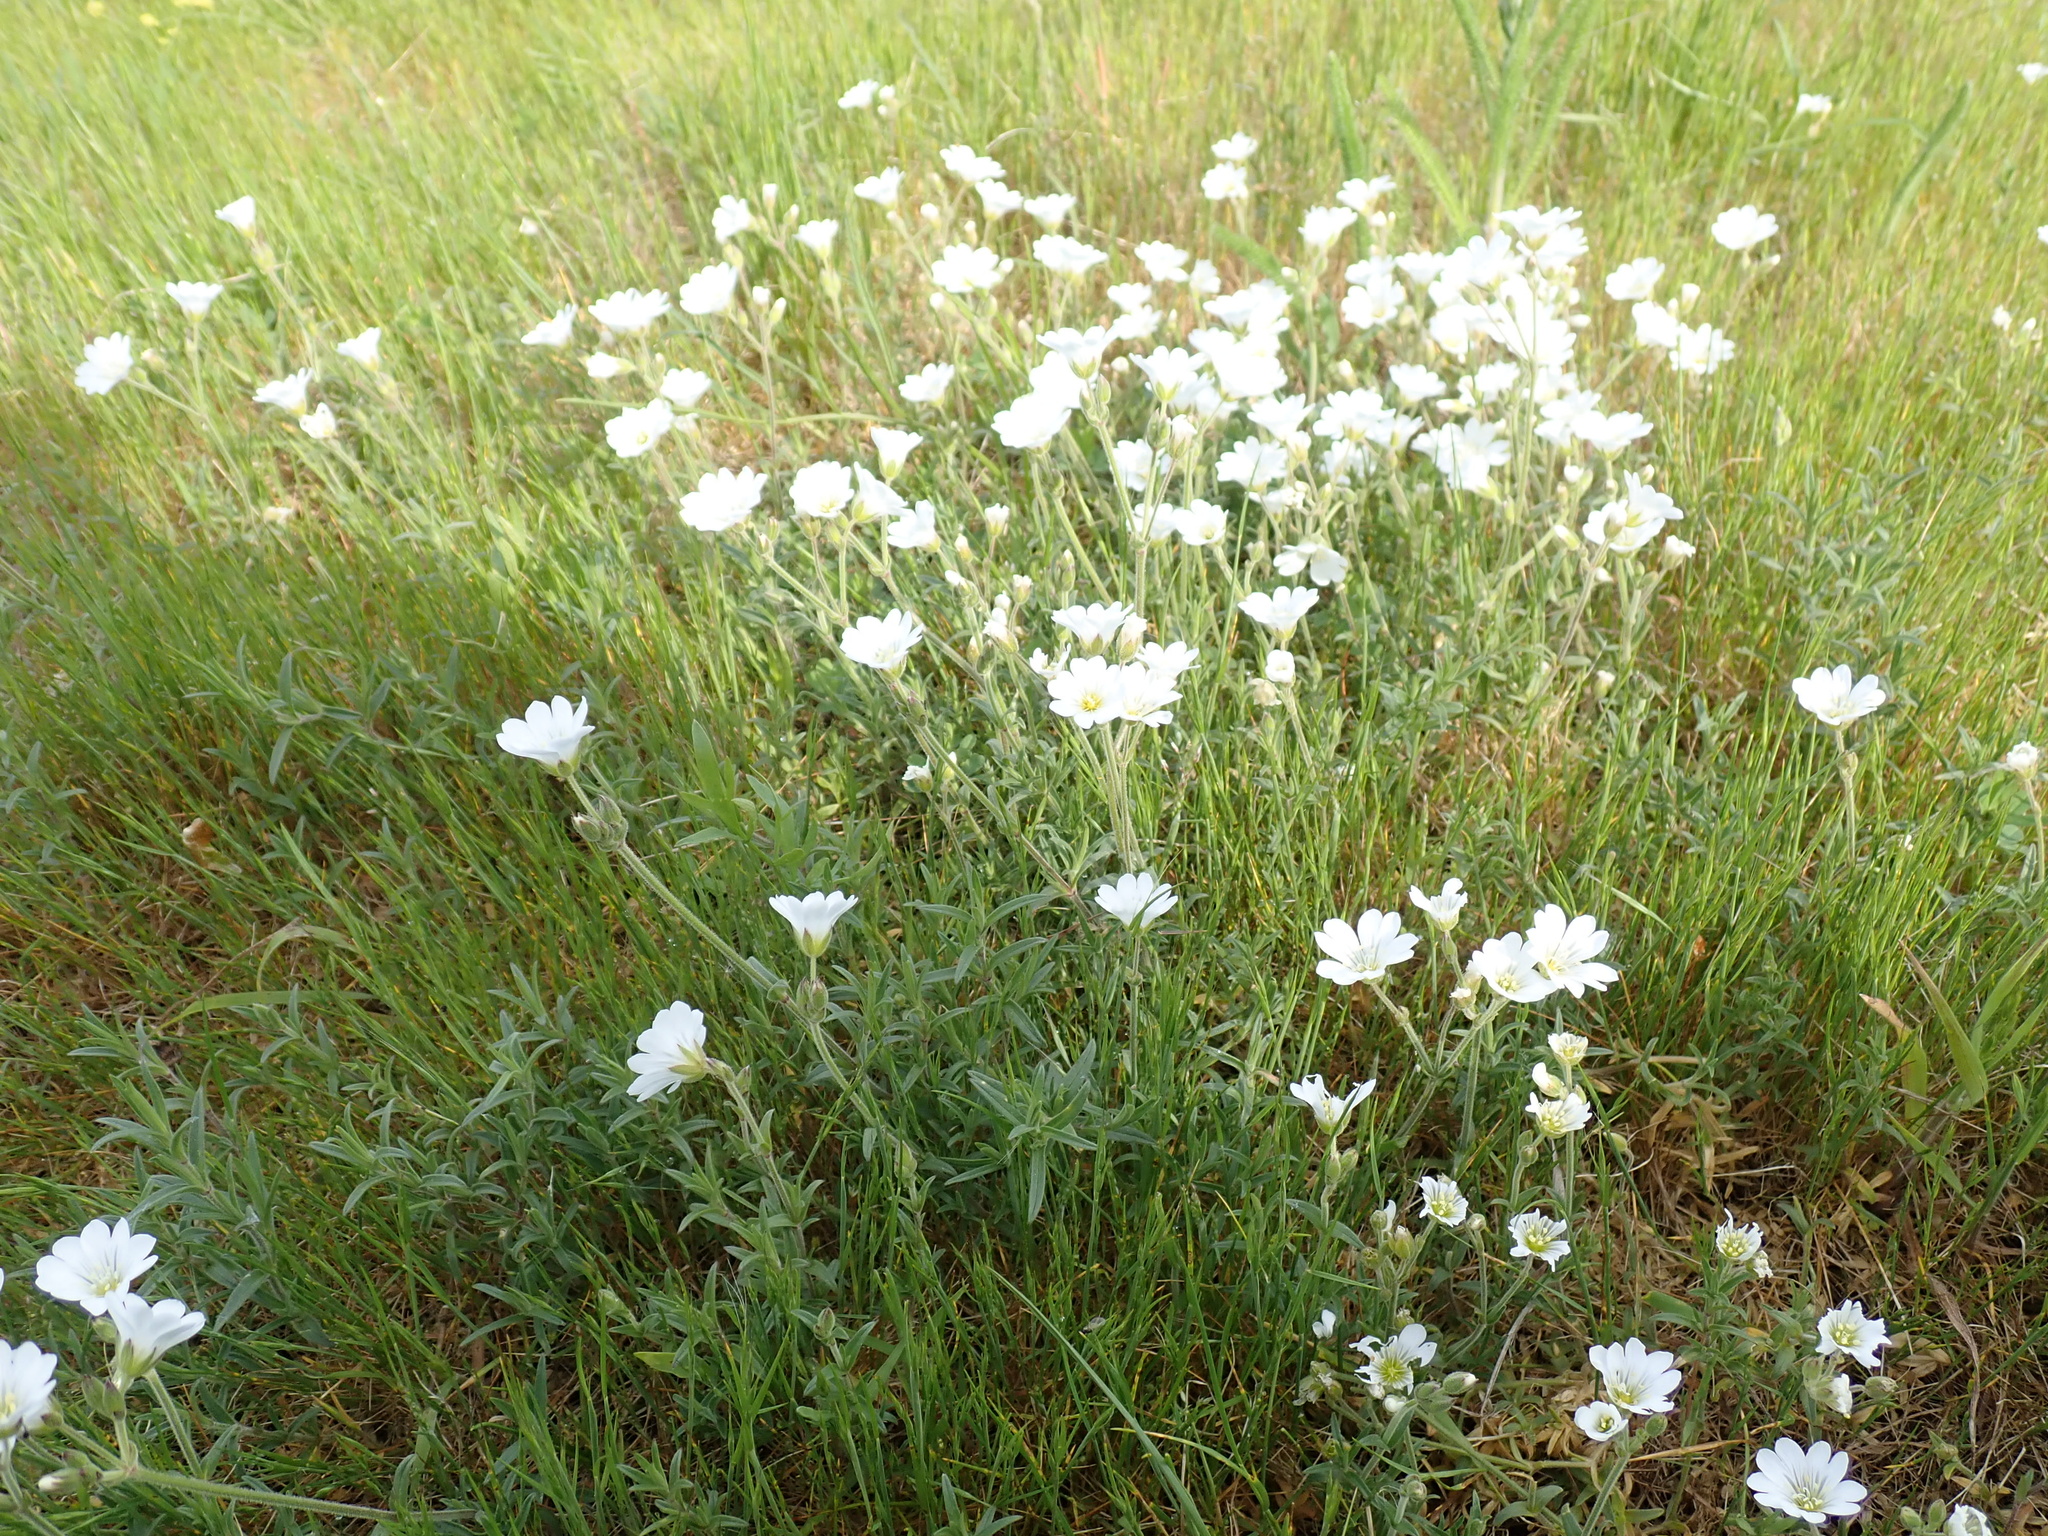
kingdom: Plantae
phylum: Tracheophyta
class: Magnoliopsida
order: Caryophyllales
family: Caryophyllaceae
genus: Cerastium
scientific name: Cerastium arvense
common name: Field mouse-ear
